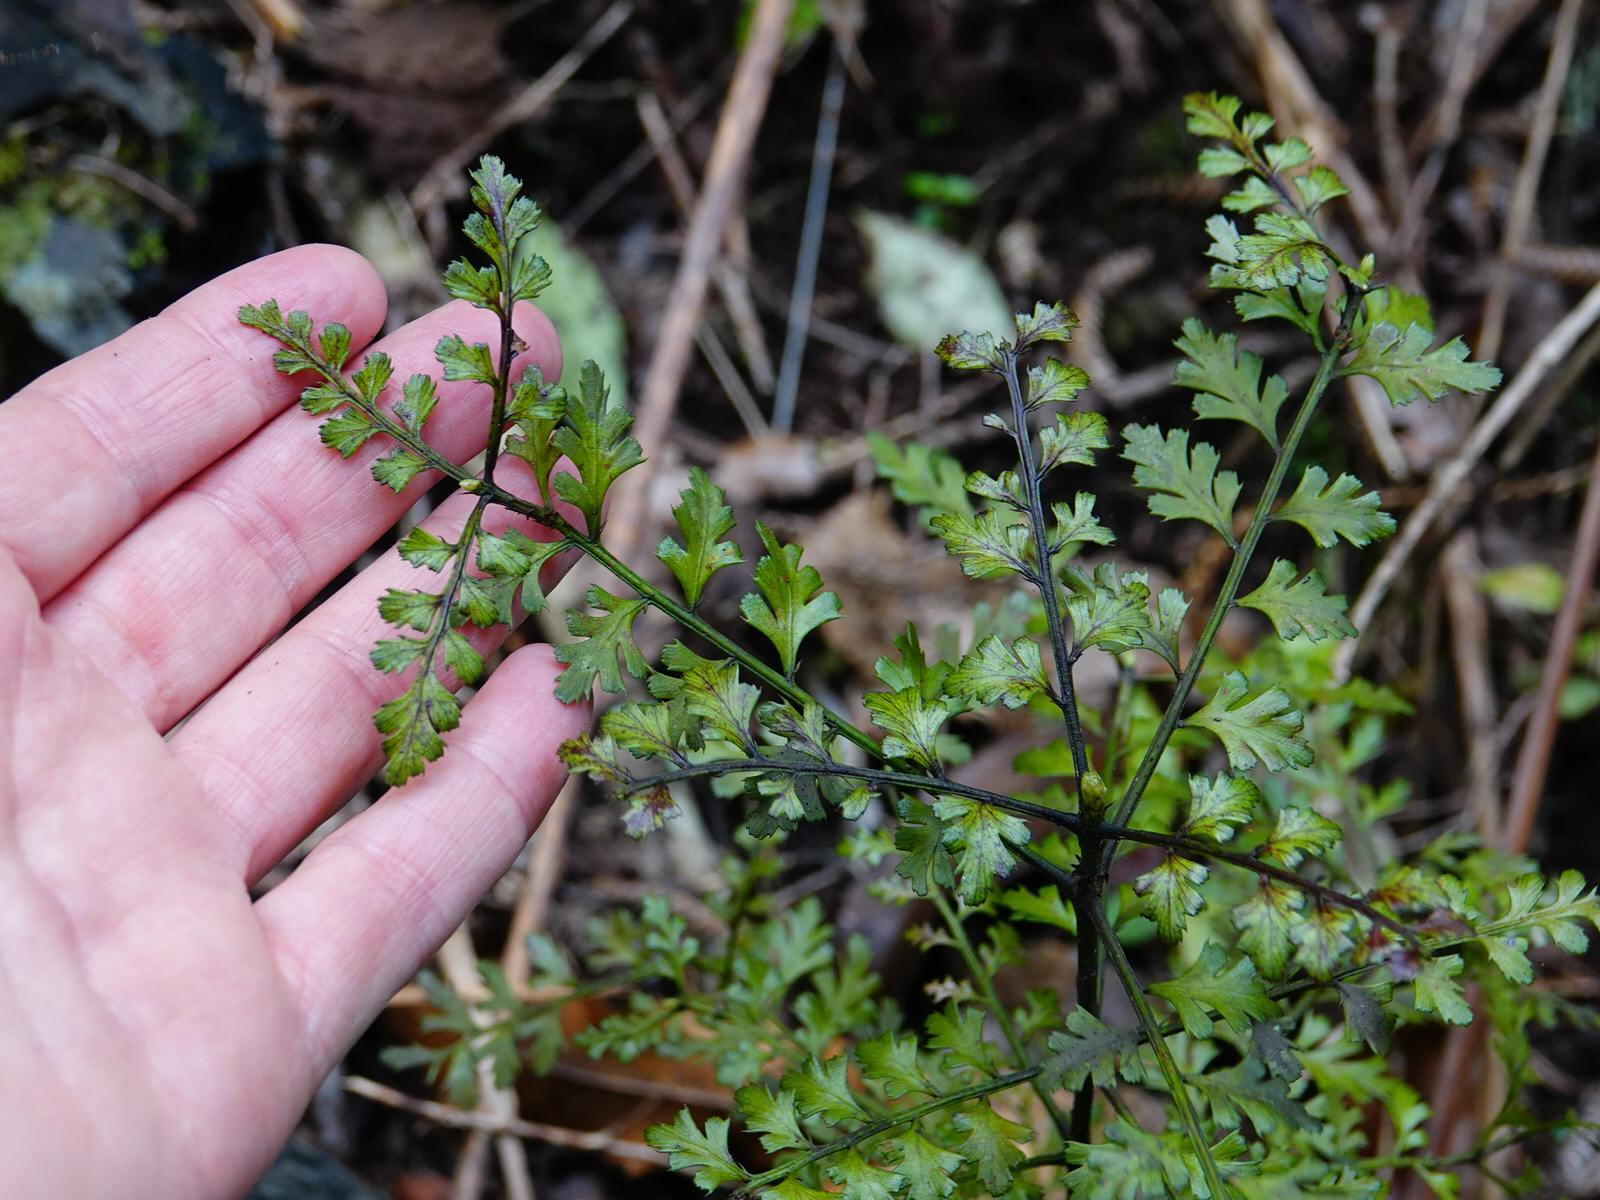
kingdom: Plantae
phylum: Tracheophyta
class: Pinopsida
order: Pinales
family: Phyllocladaceae
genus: Phyllocladus
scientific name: Phyllocladus trichomanoides
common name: Celery pine
